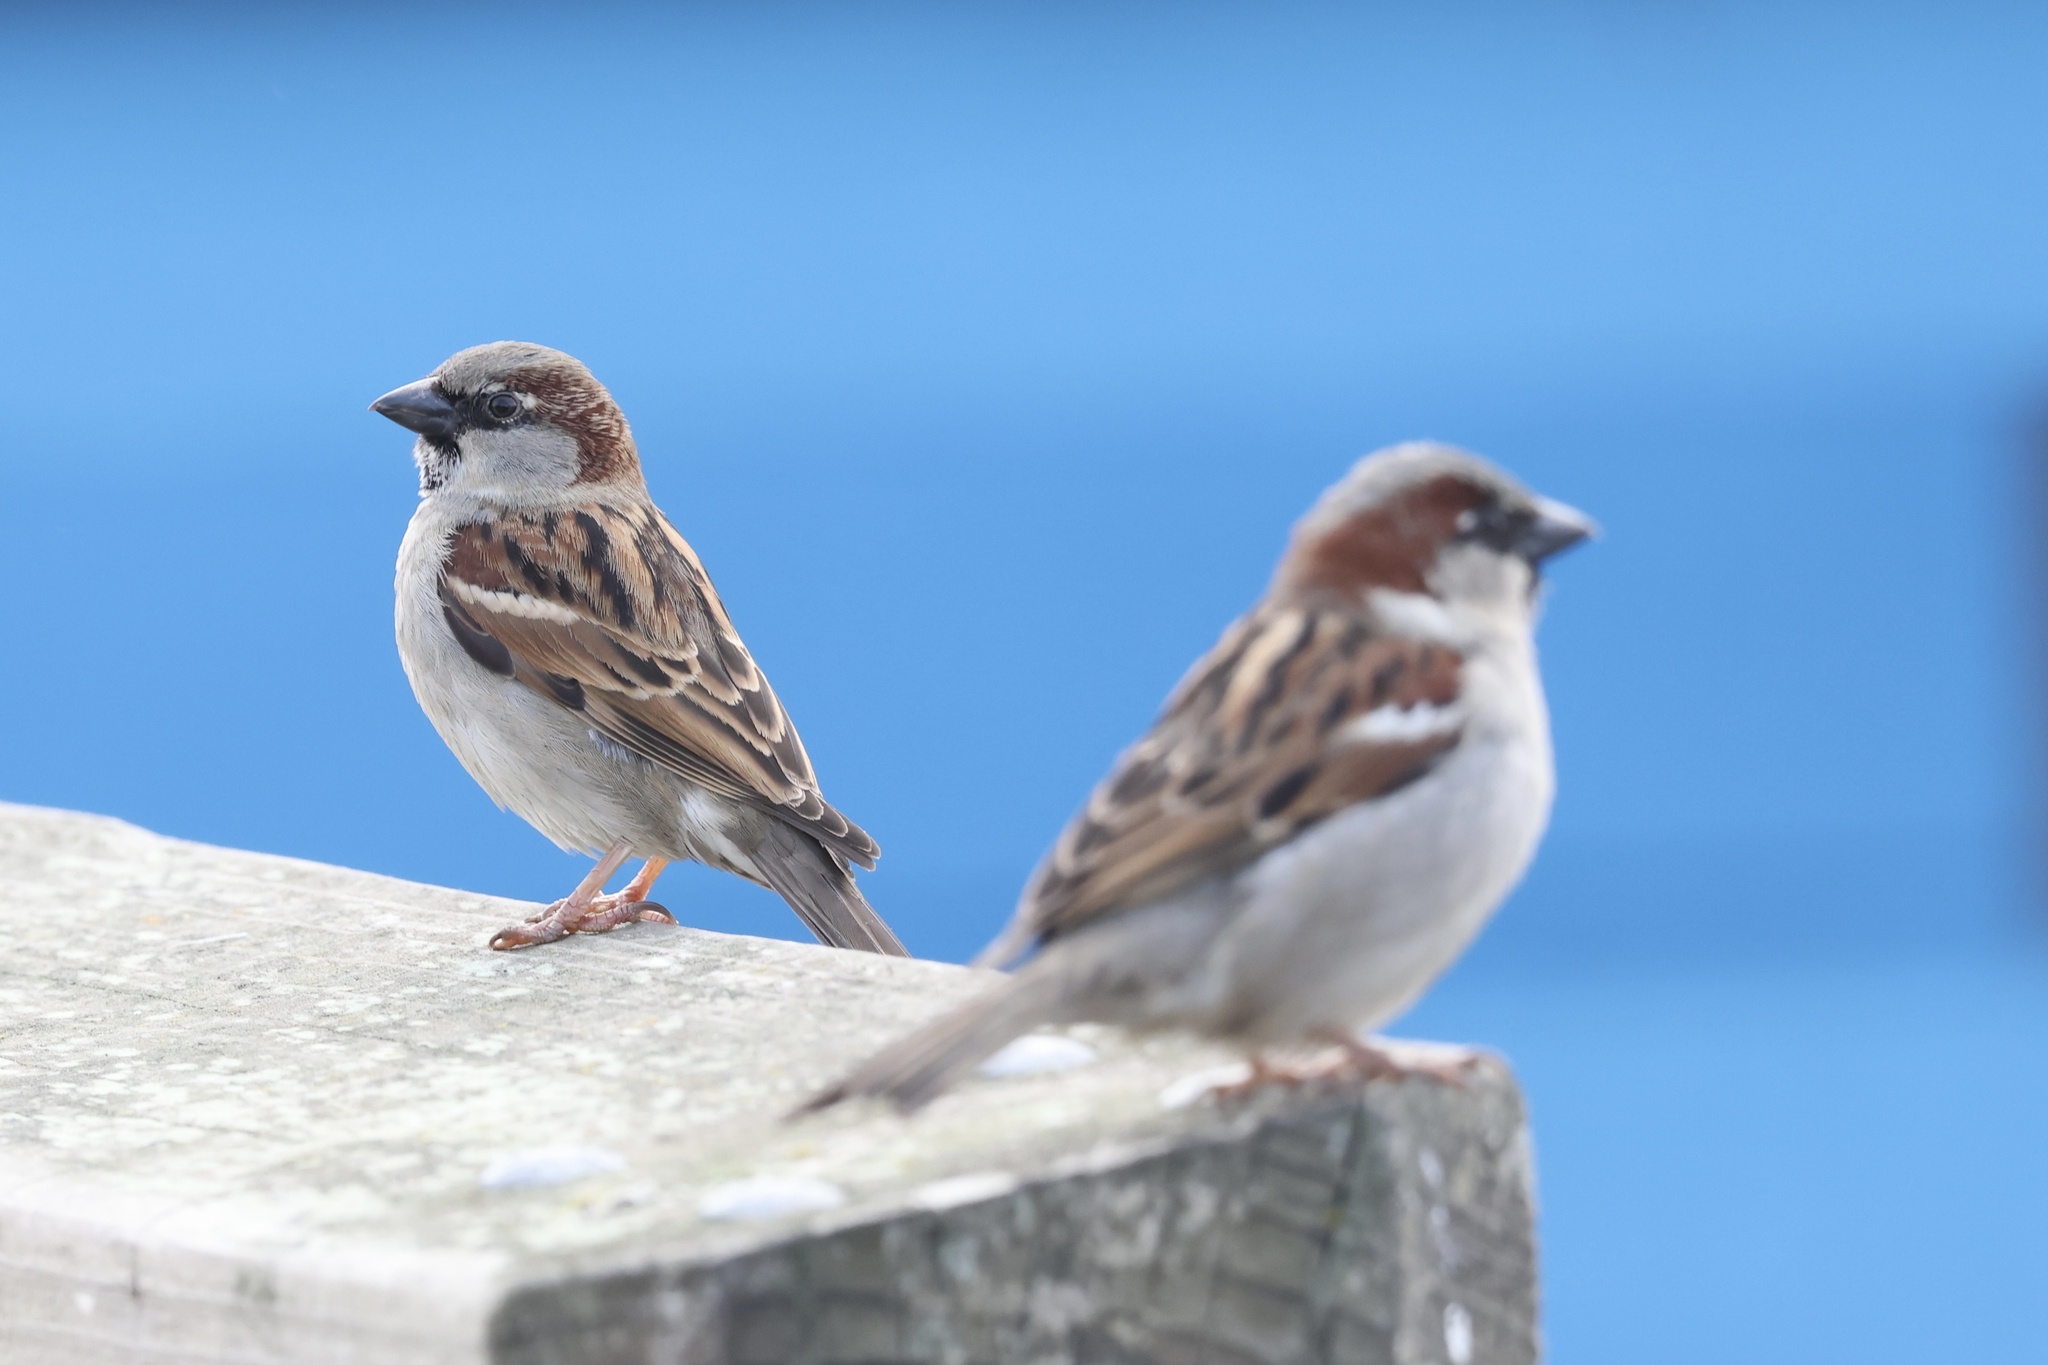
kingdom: Animalia
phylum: Chordata
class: Aves
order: Passeriformes
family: Passeridae
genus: Passer
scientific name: Passer domesticus
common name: House sparrow
